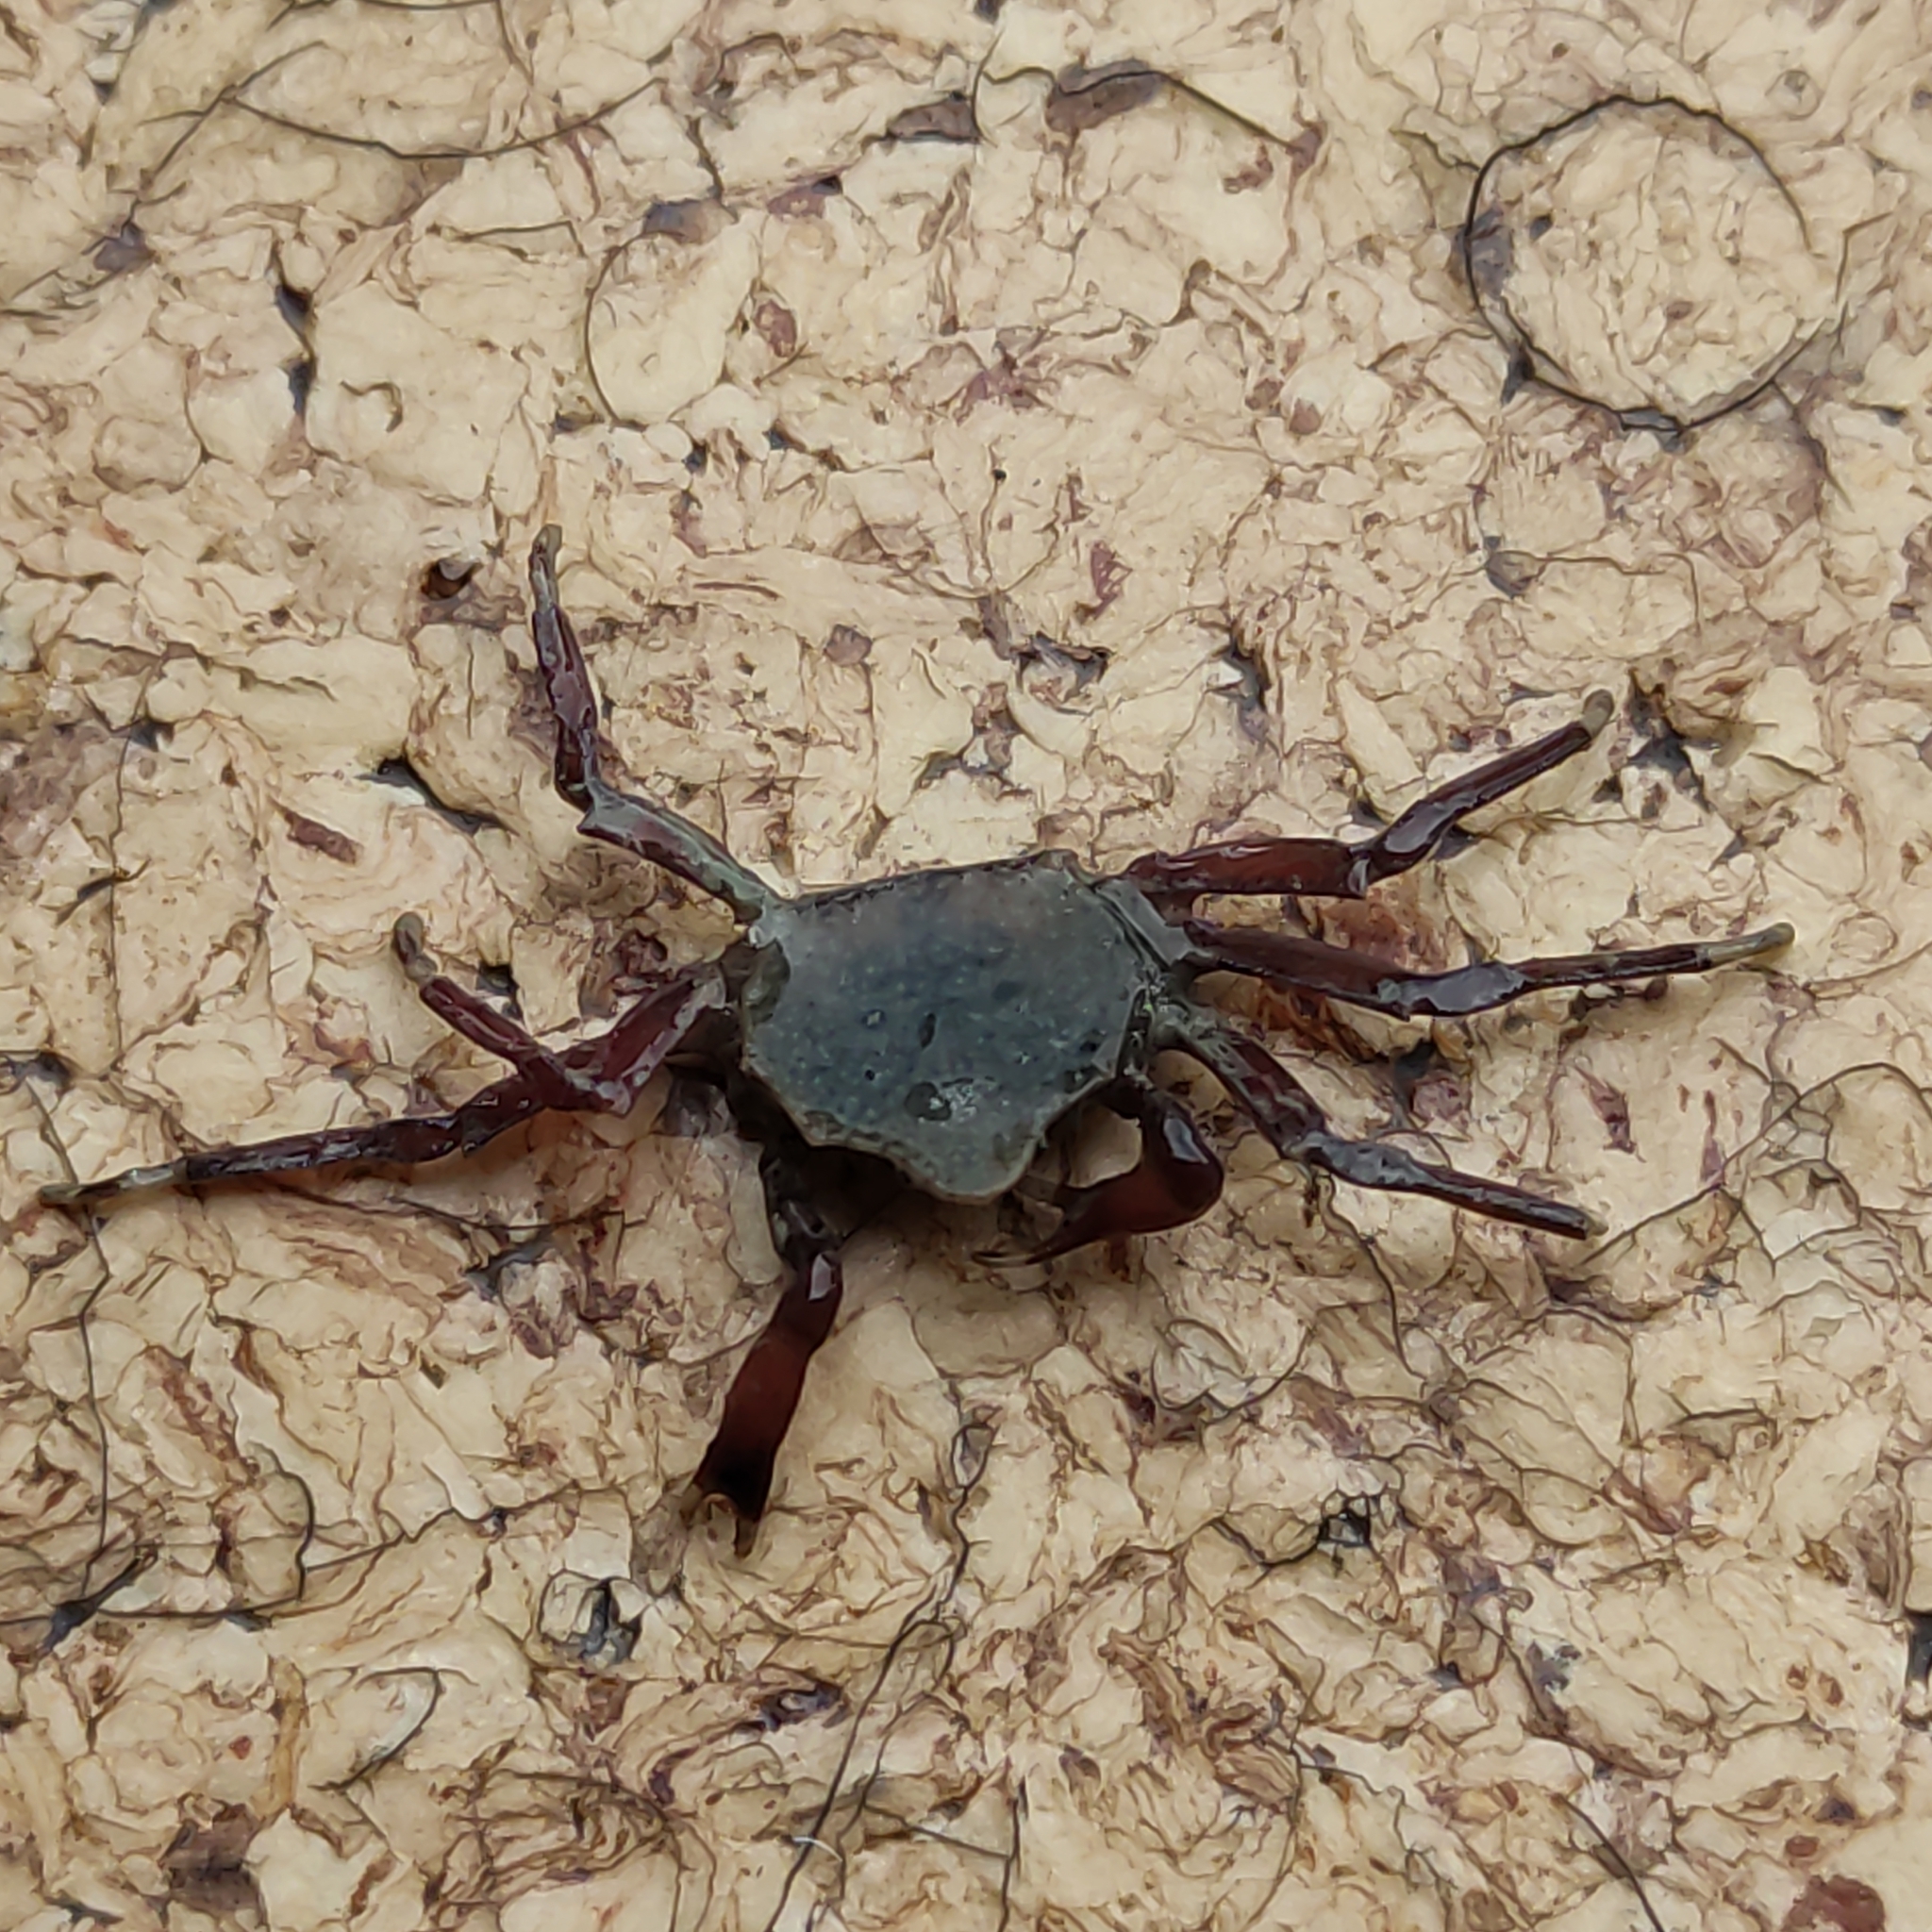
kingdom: Animalia
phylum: Arthropoda
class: Malacostraca
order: Decapoda
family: Hymenosomatidae
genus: Elamena
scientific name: Elamena producta
